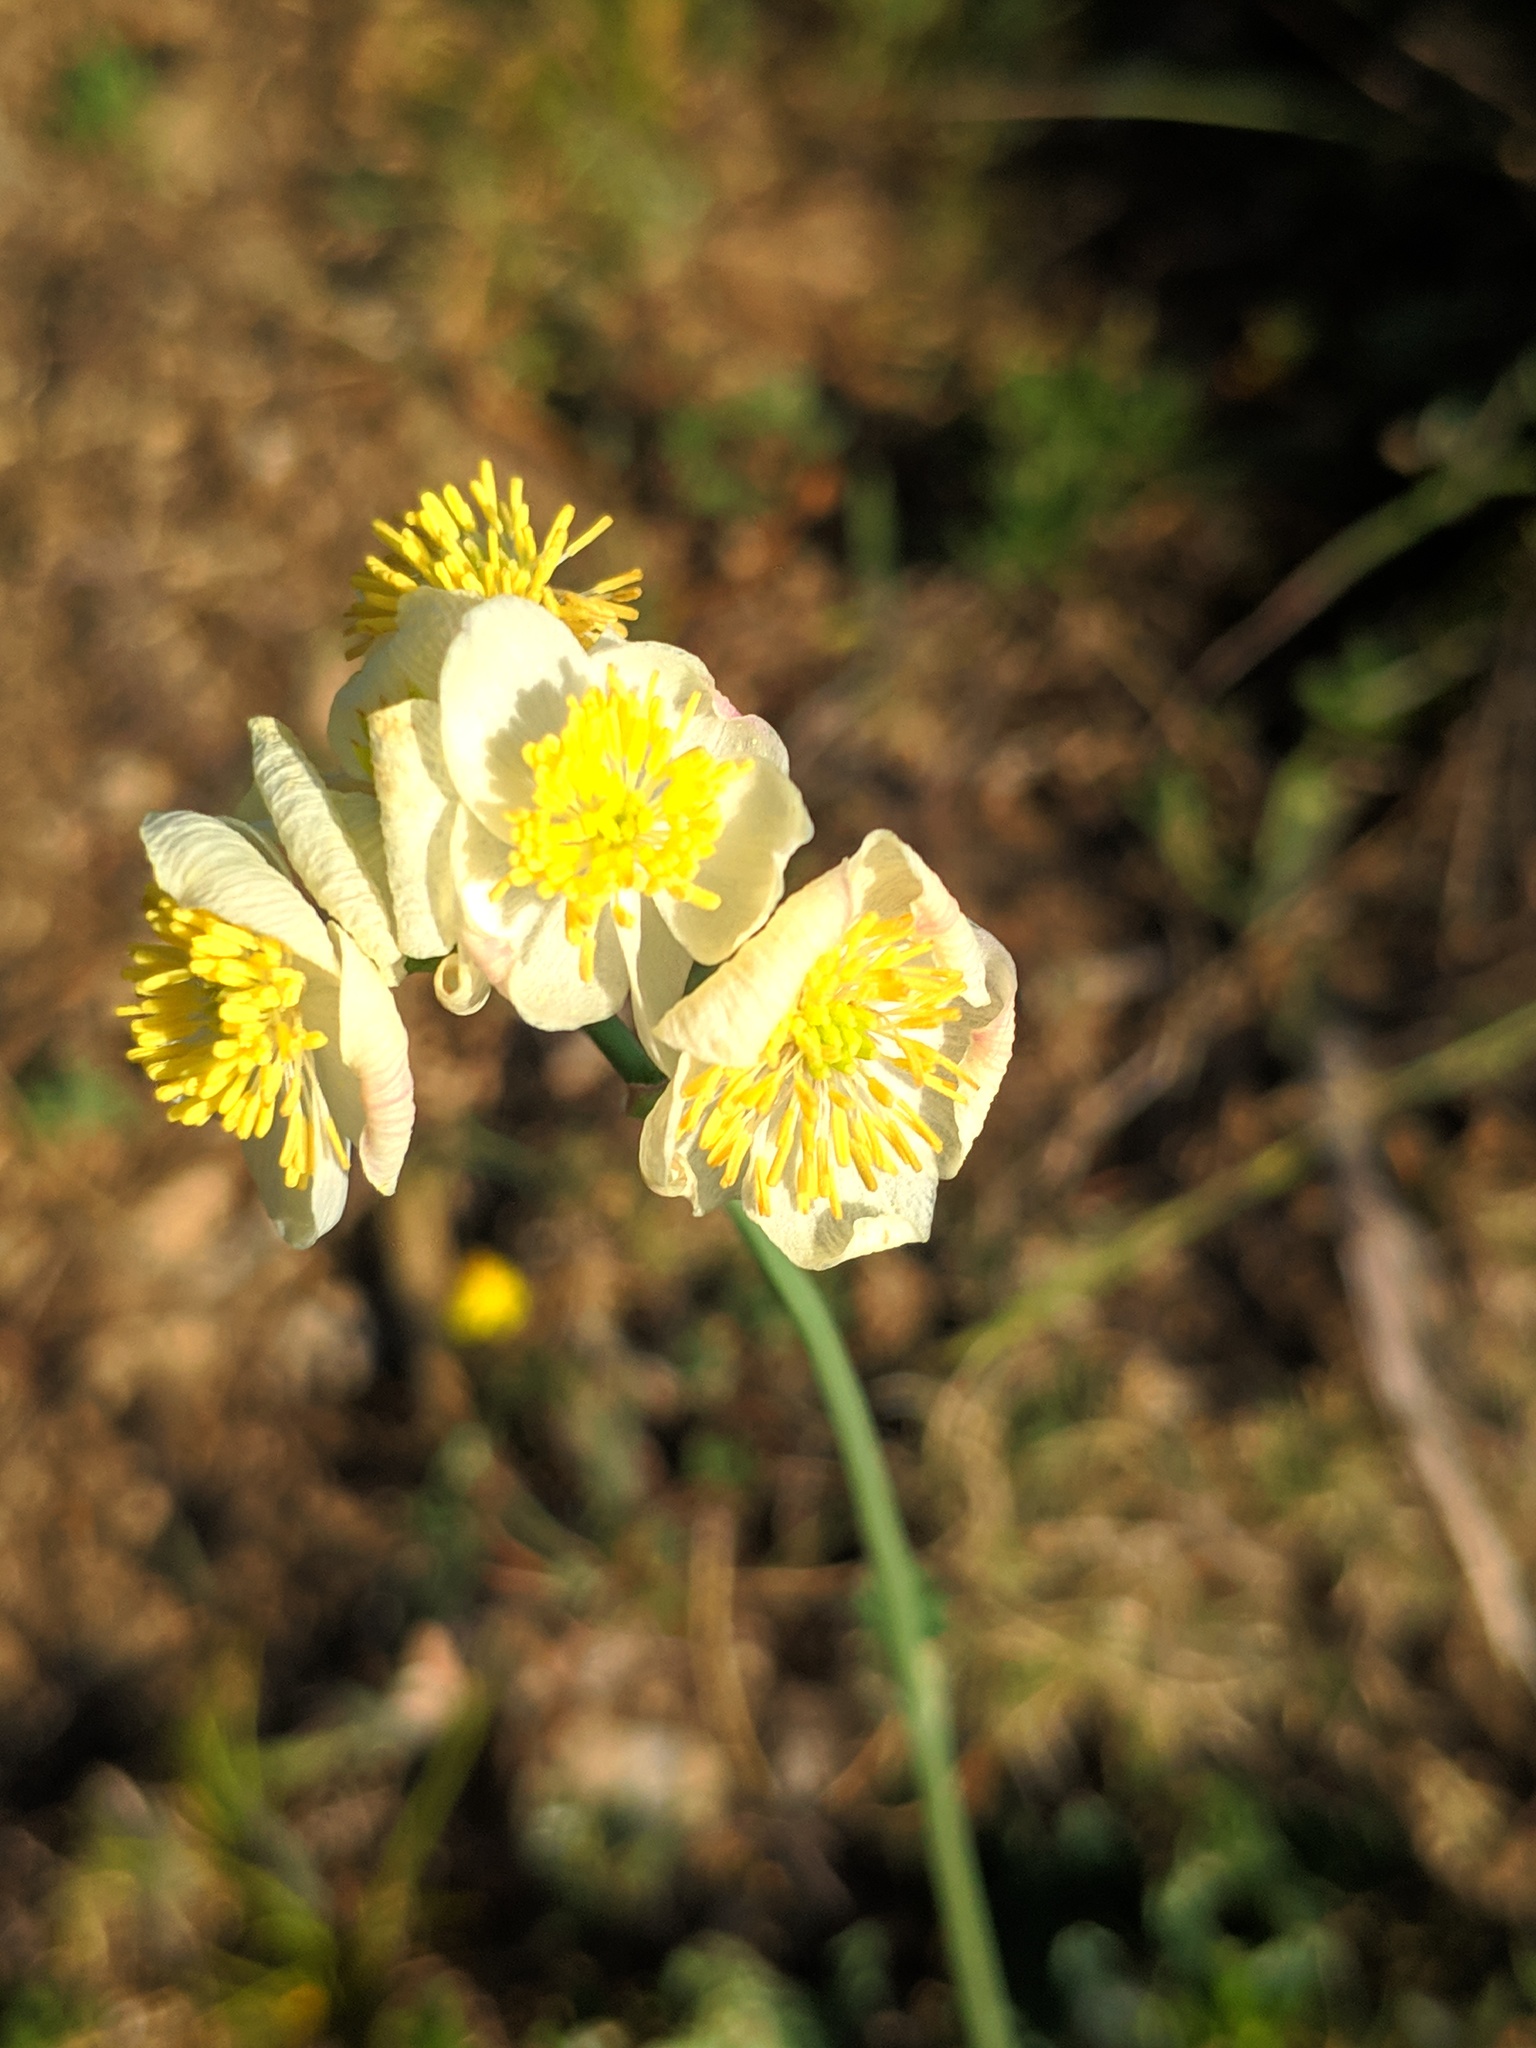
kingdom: Plantae
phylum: Tracheophyta
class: Magnoliopsida
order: Ranunculales
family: Ranunculaceae
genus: Thalictrum
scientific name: Thalictrum tuberosum
